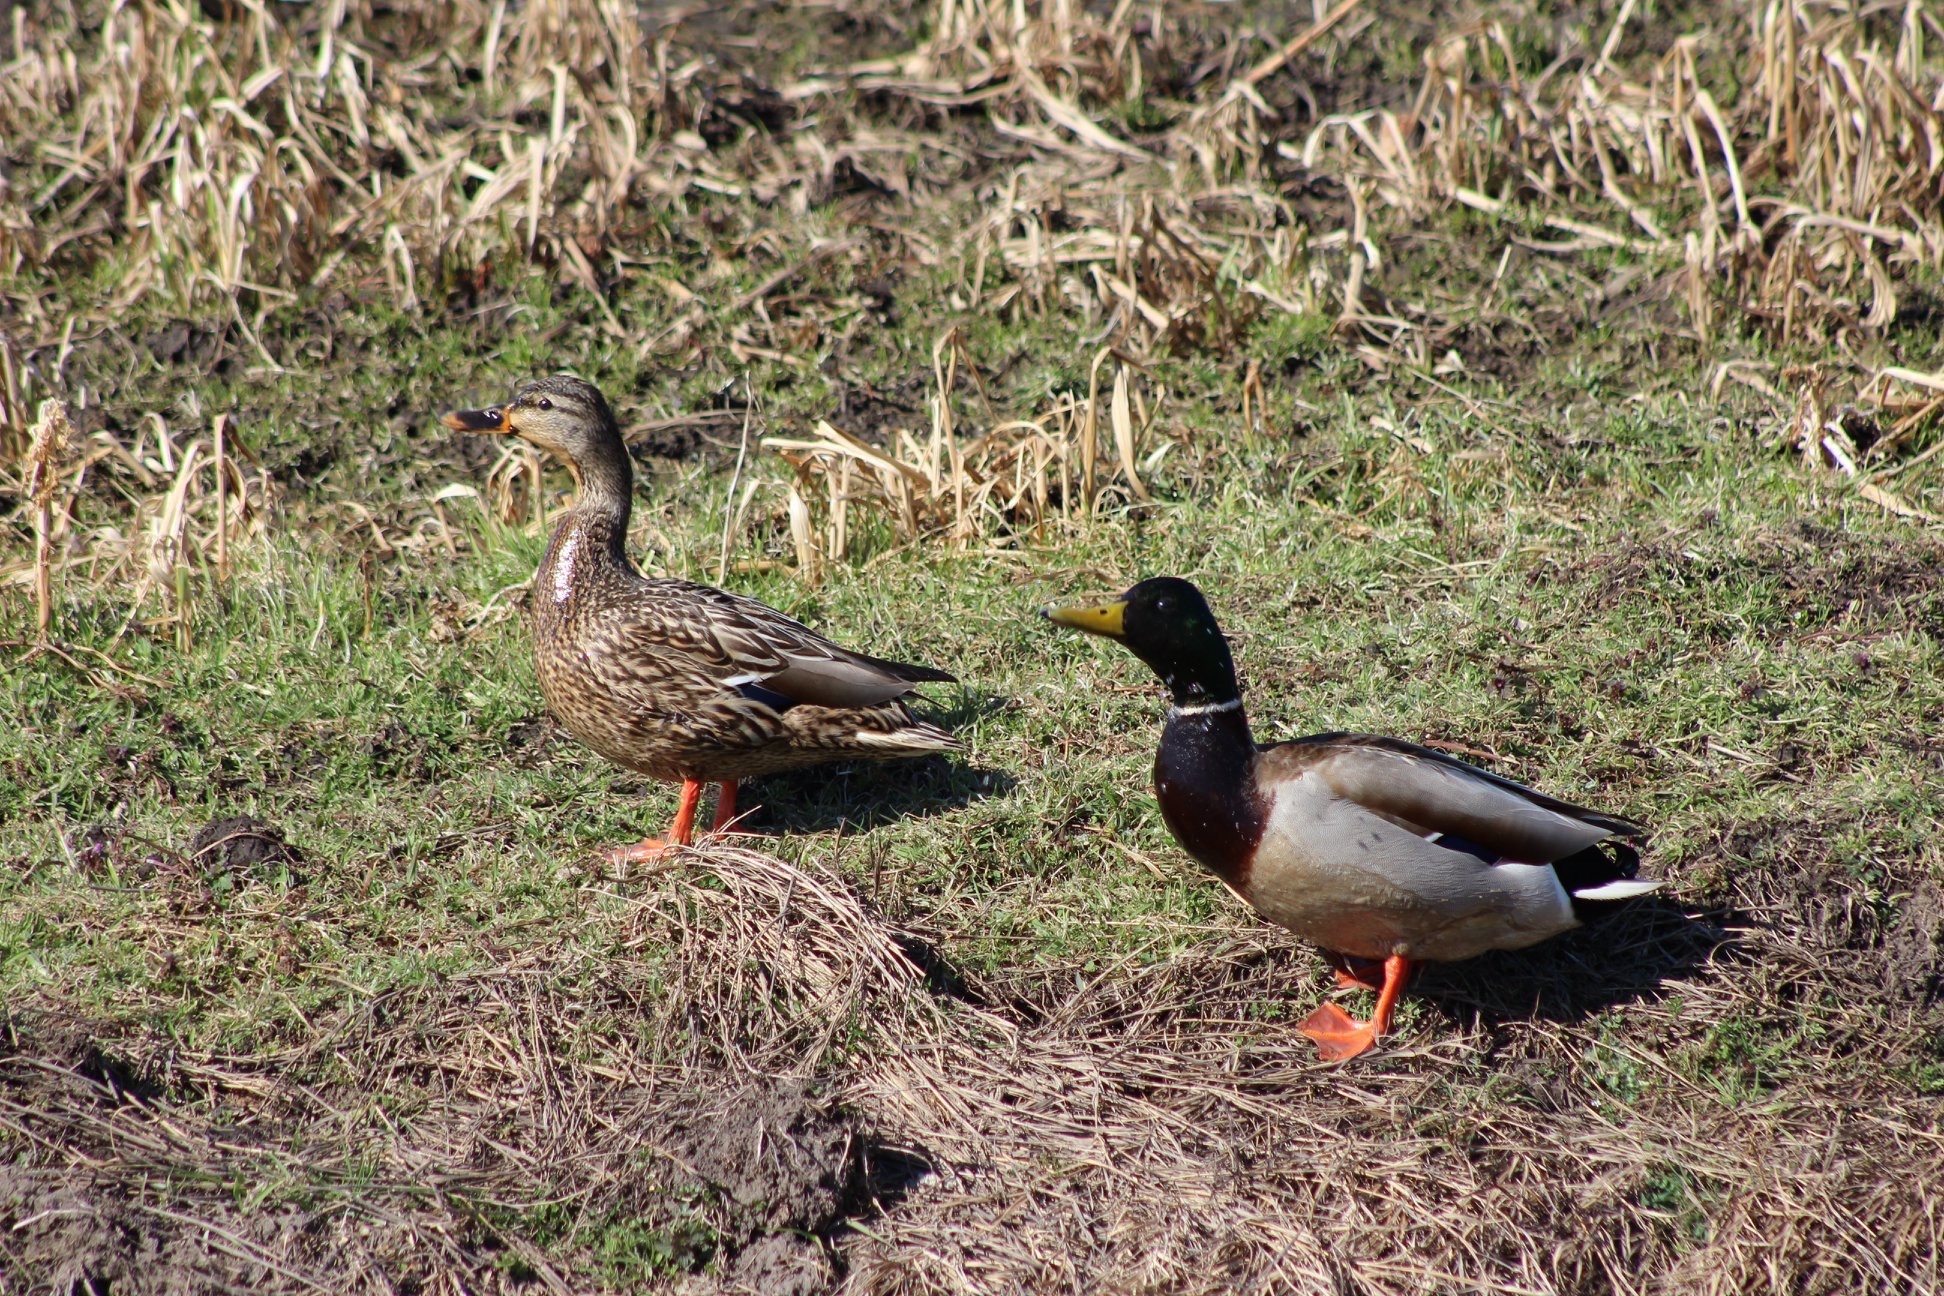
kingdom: Animalia
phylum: Chordata
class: Aves
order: Anseriformes
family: Anatidae
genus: Anas
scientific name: Anas platyrhynchos
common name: Mallard
